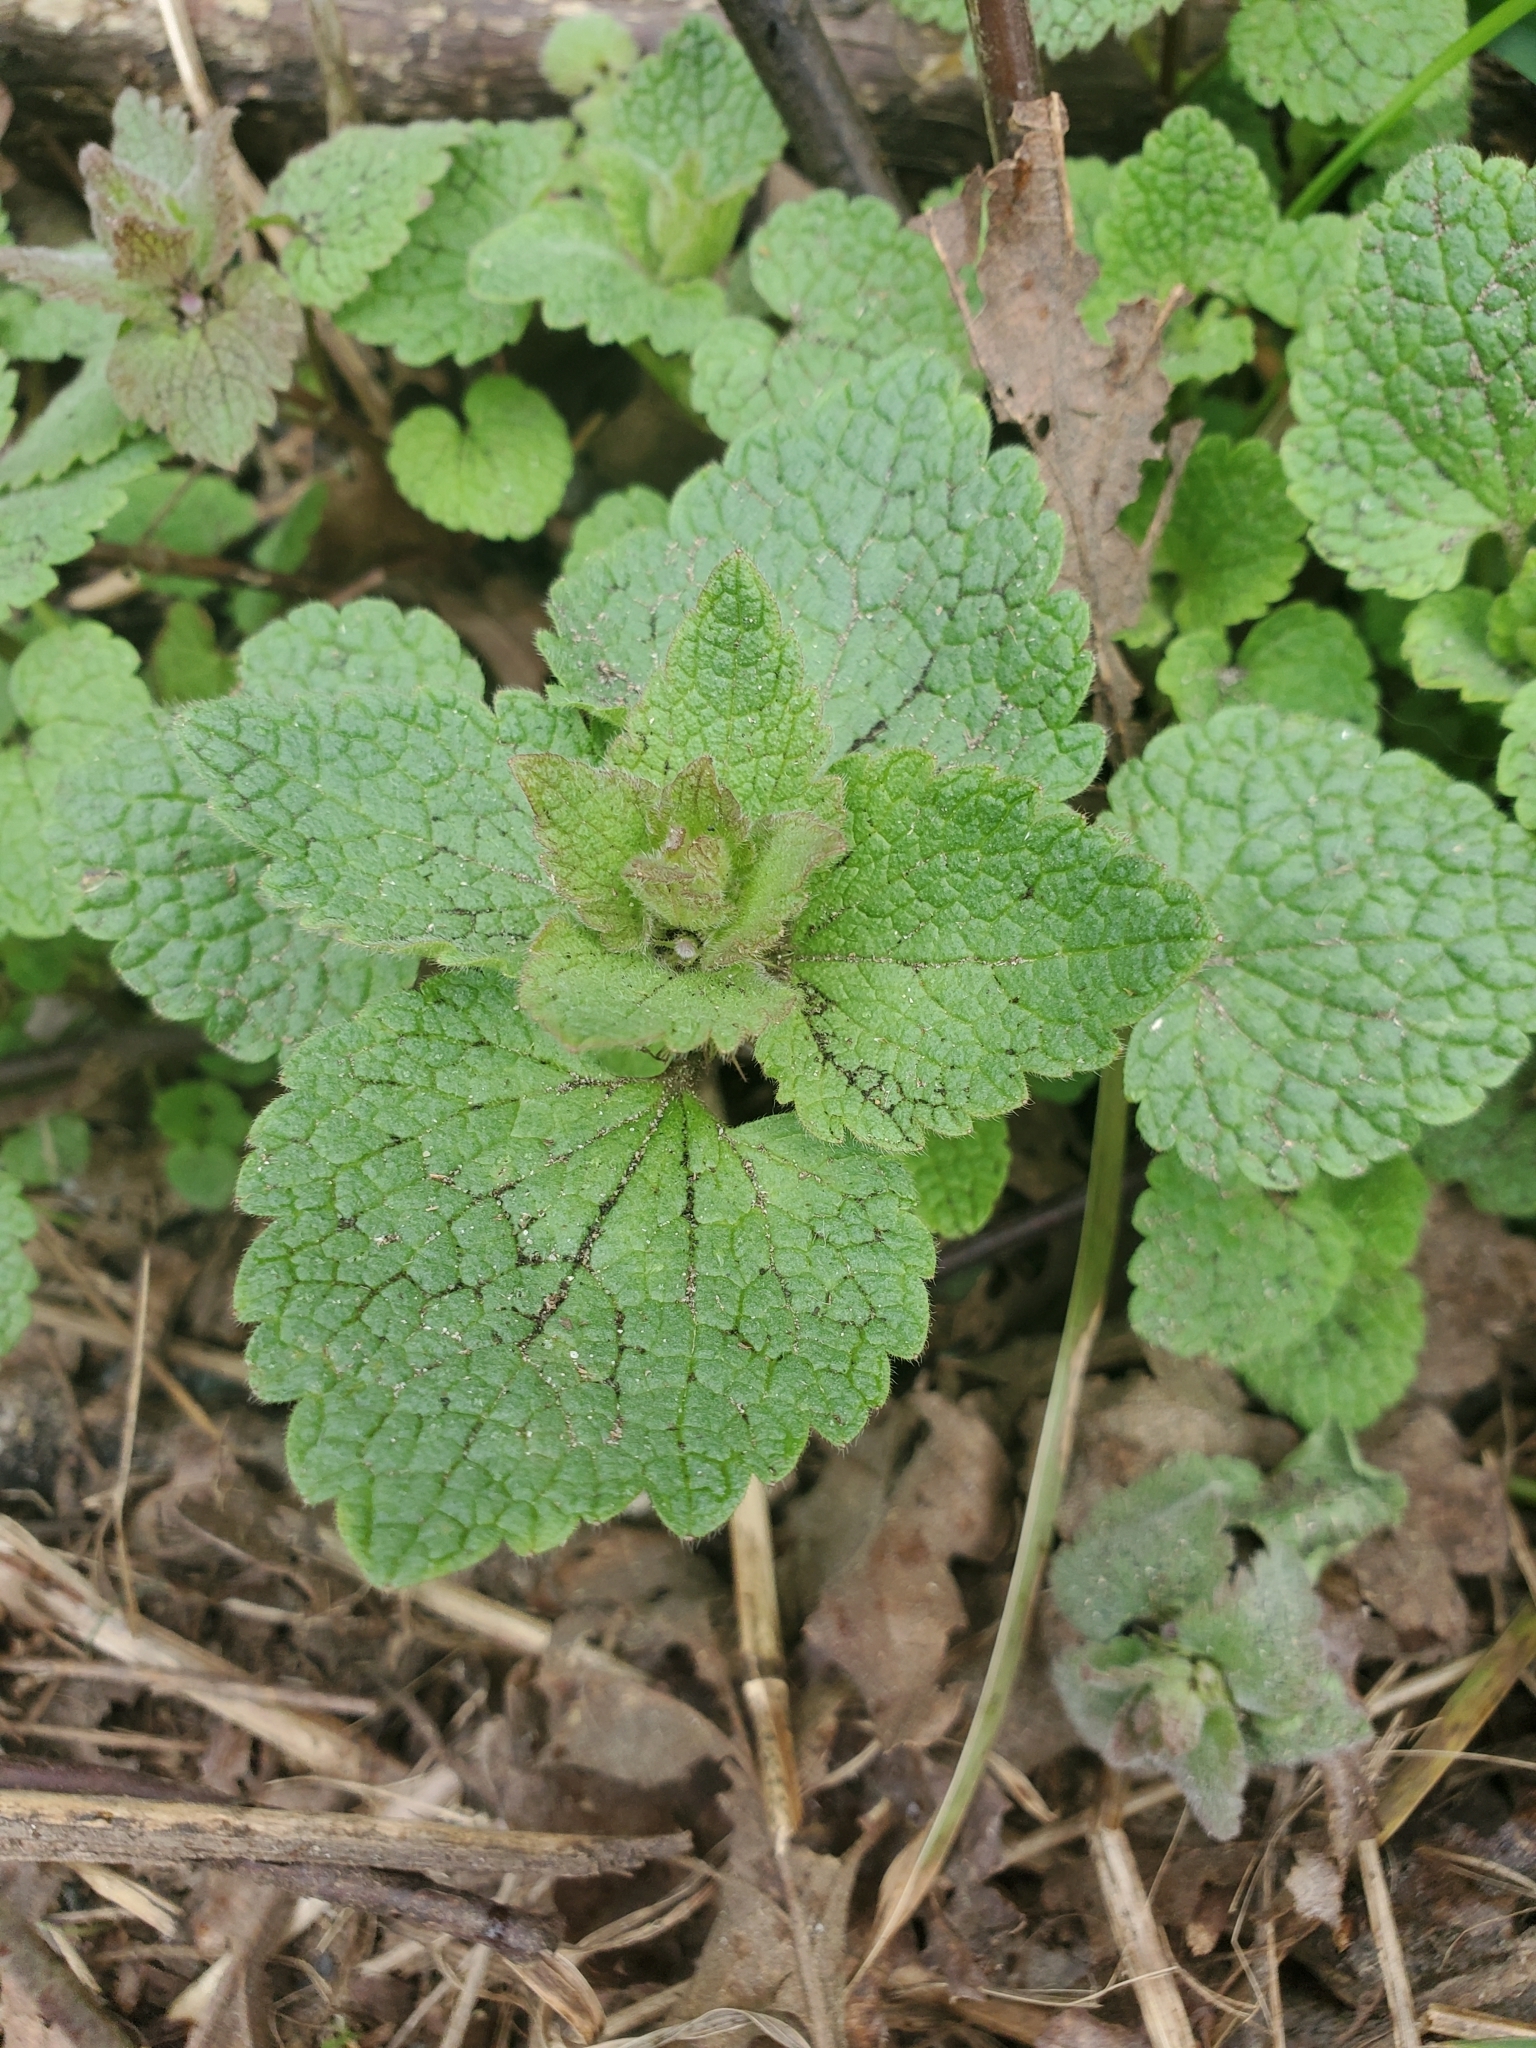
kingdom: Plantae
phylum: Tracheophyta
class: Magnoliopsida
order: Lamiales
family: Lamiaceae
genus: Lamium
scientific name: Lamium purpureum
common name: Red dead-nettle
